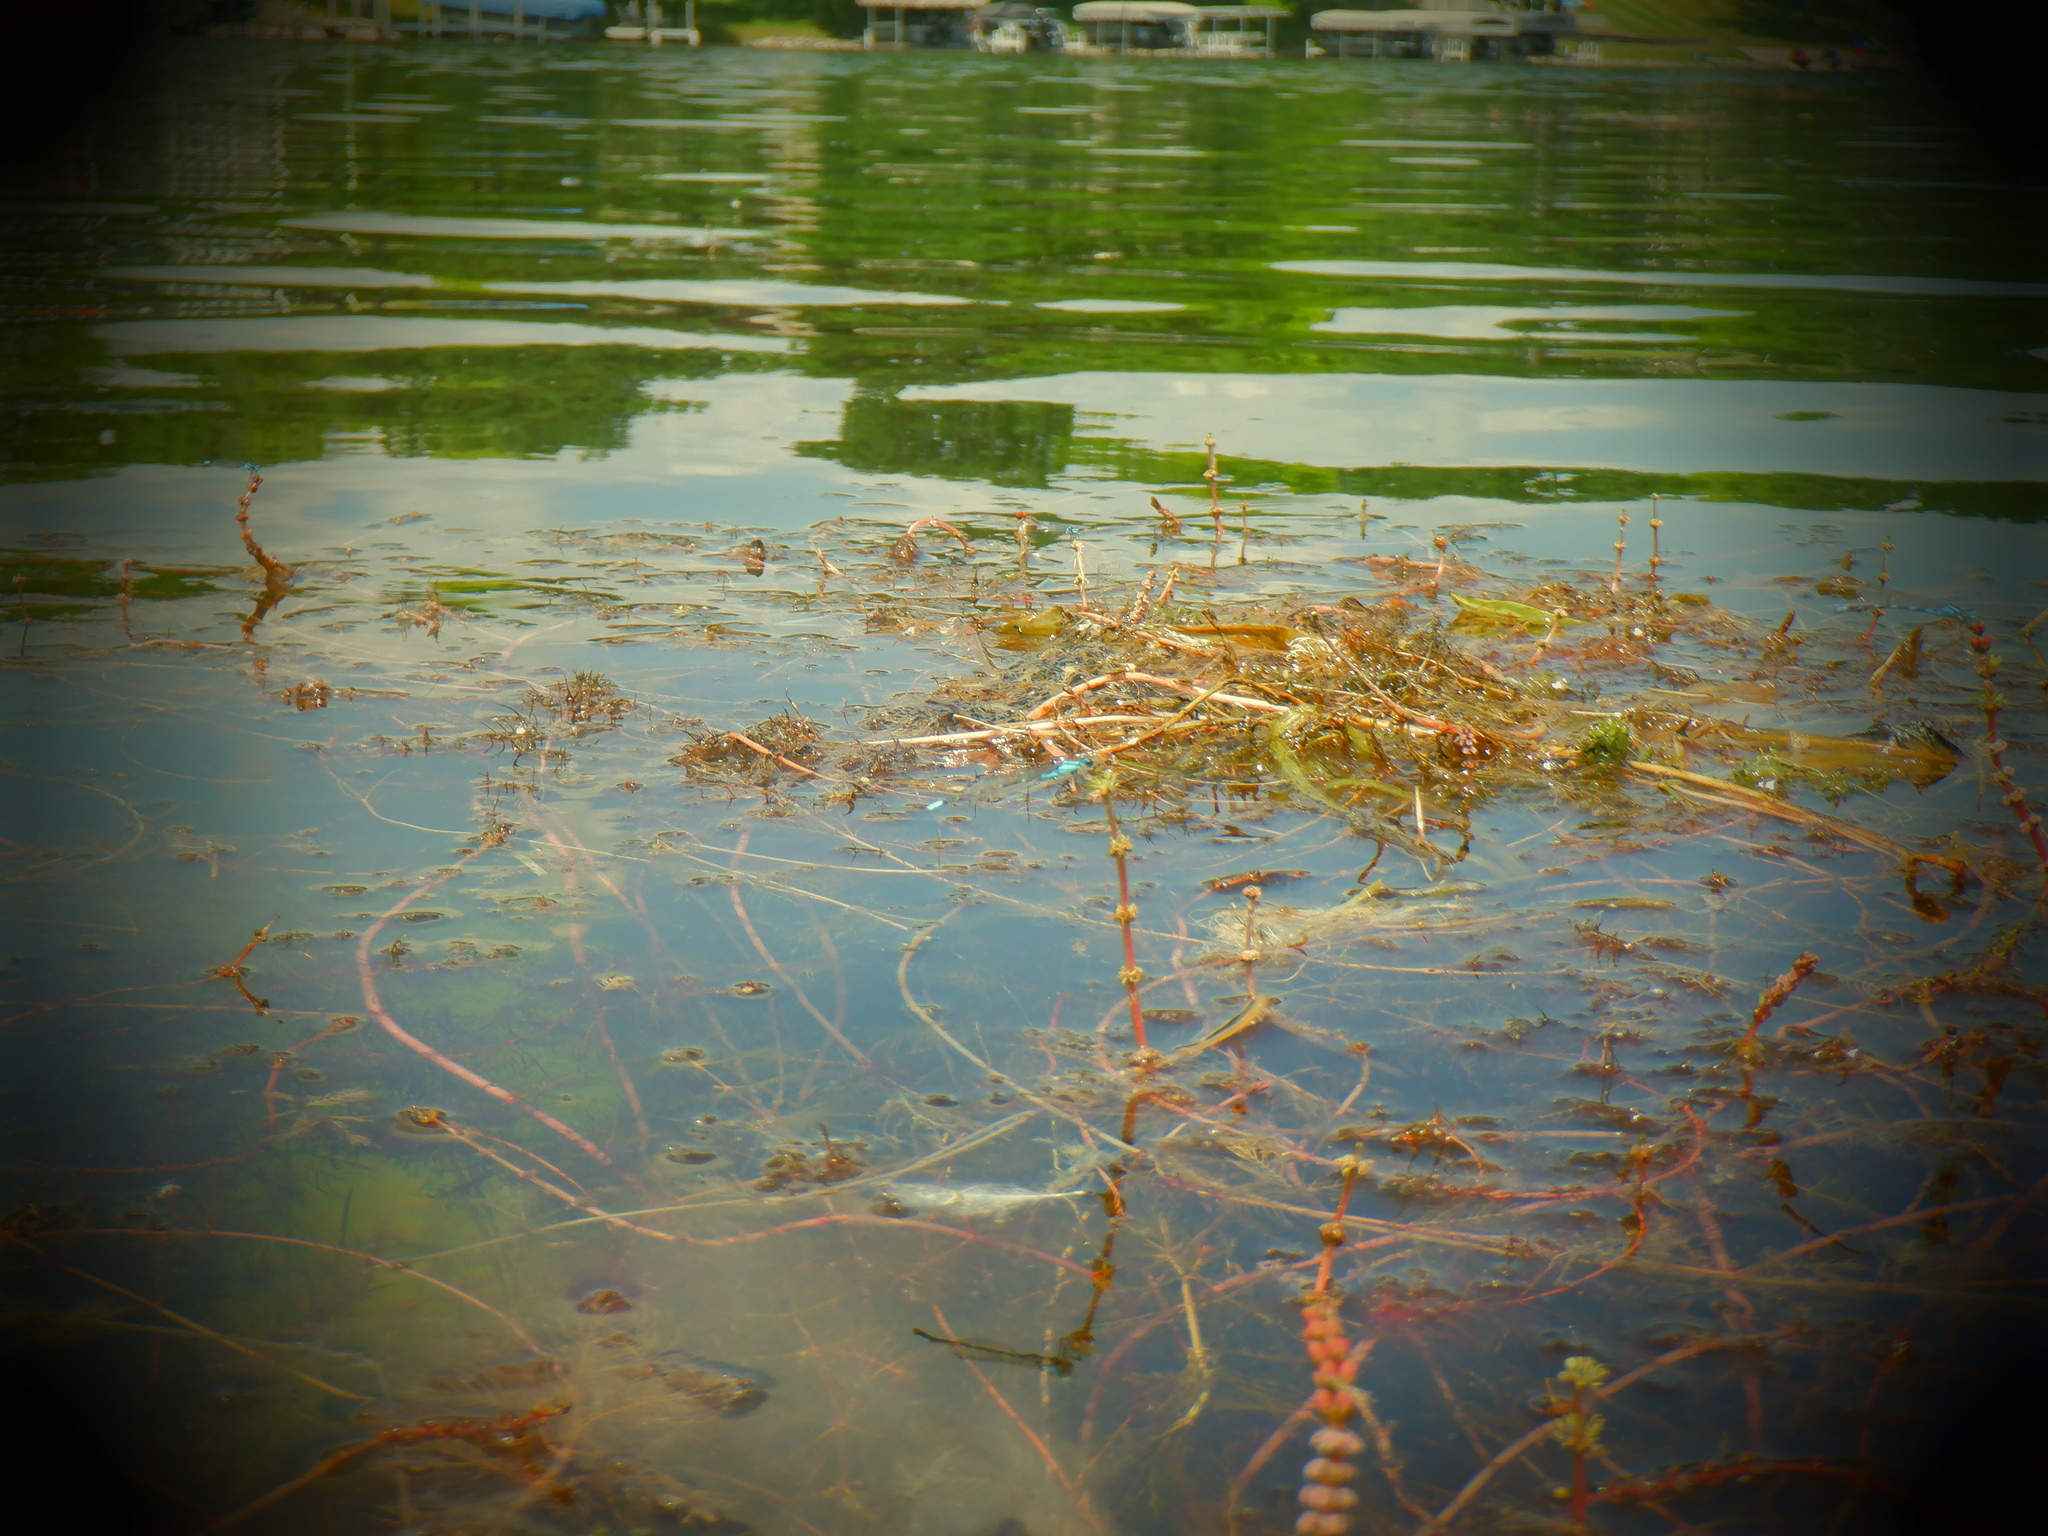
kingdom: Animalia
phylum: Arthropoda
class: Insecta
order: Odonata
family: Coenagrionidae
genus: Enallagma
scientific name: Enallagma geminatum
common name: Skimming bluet
